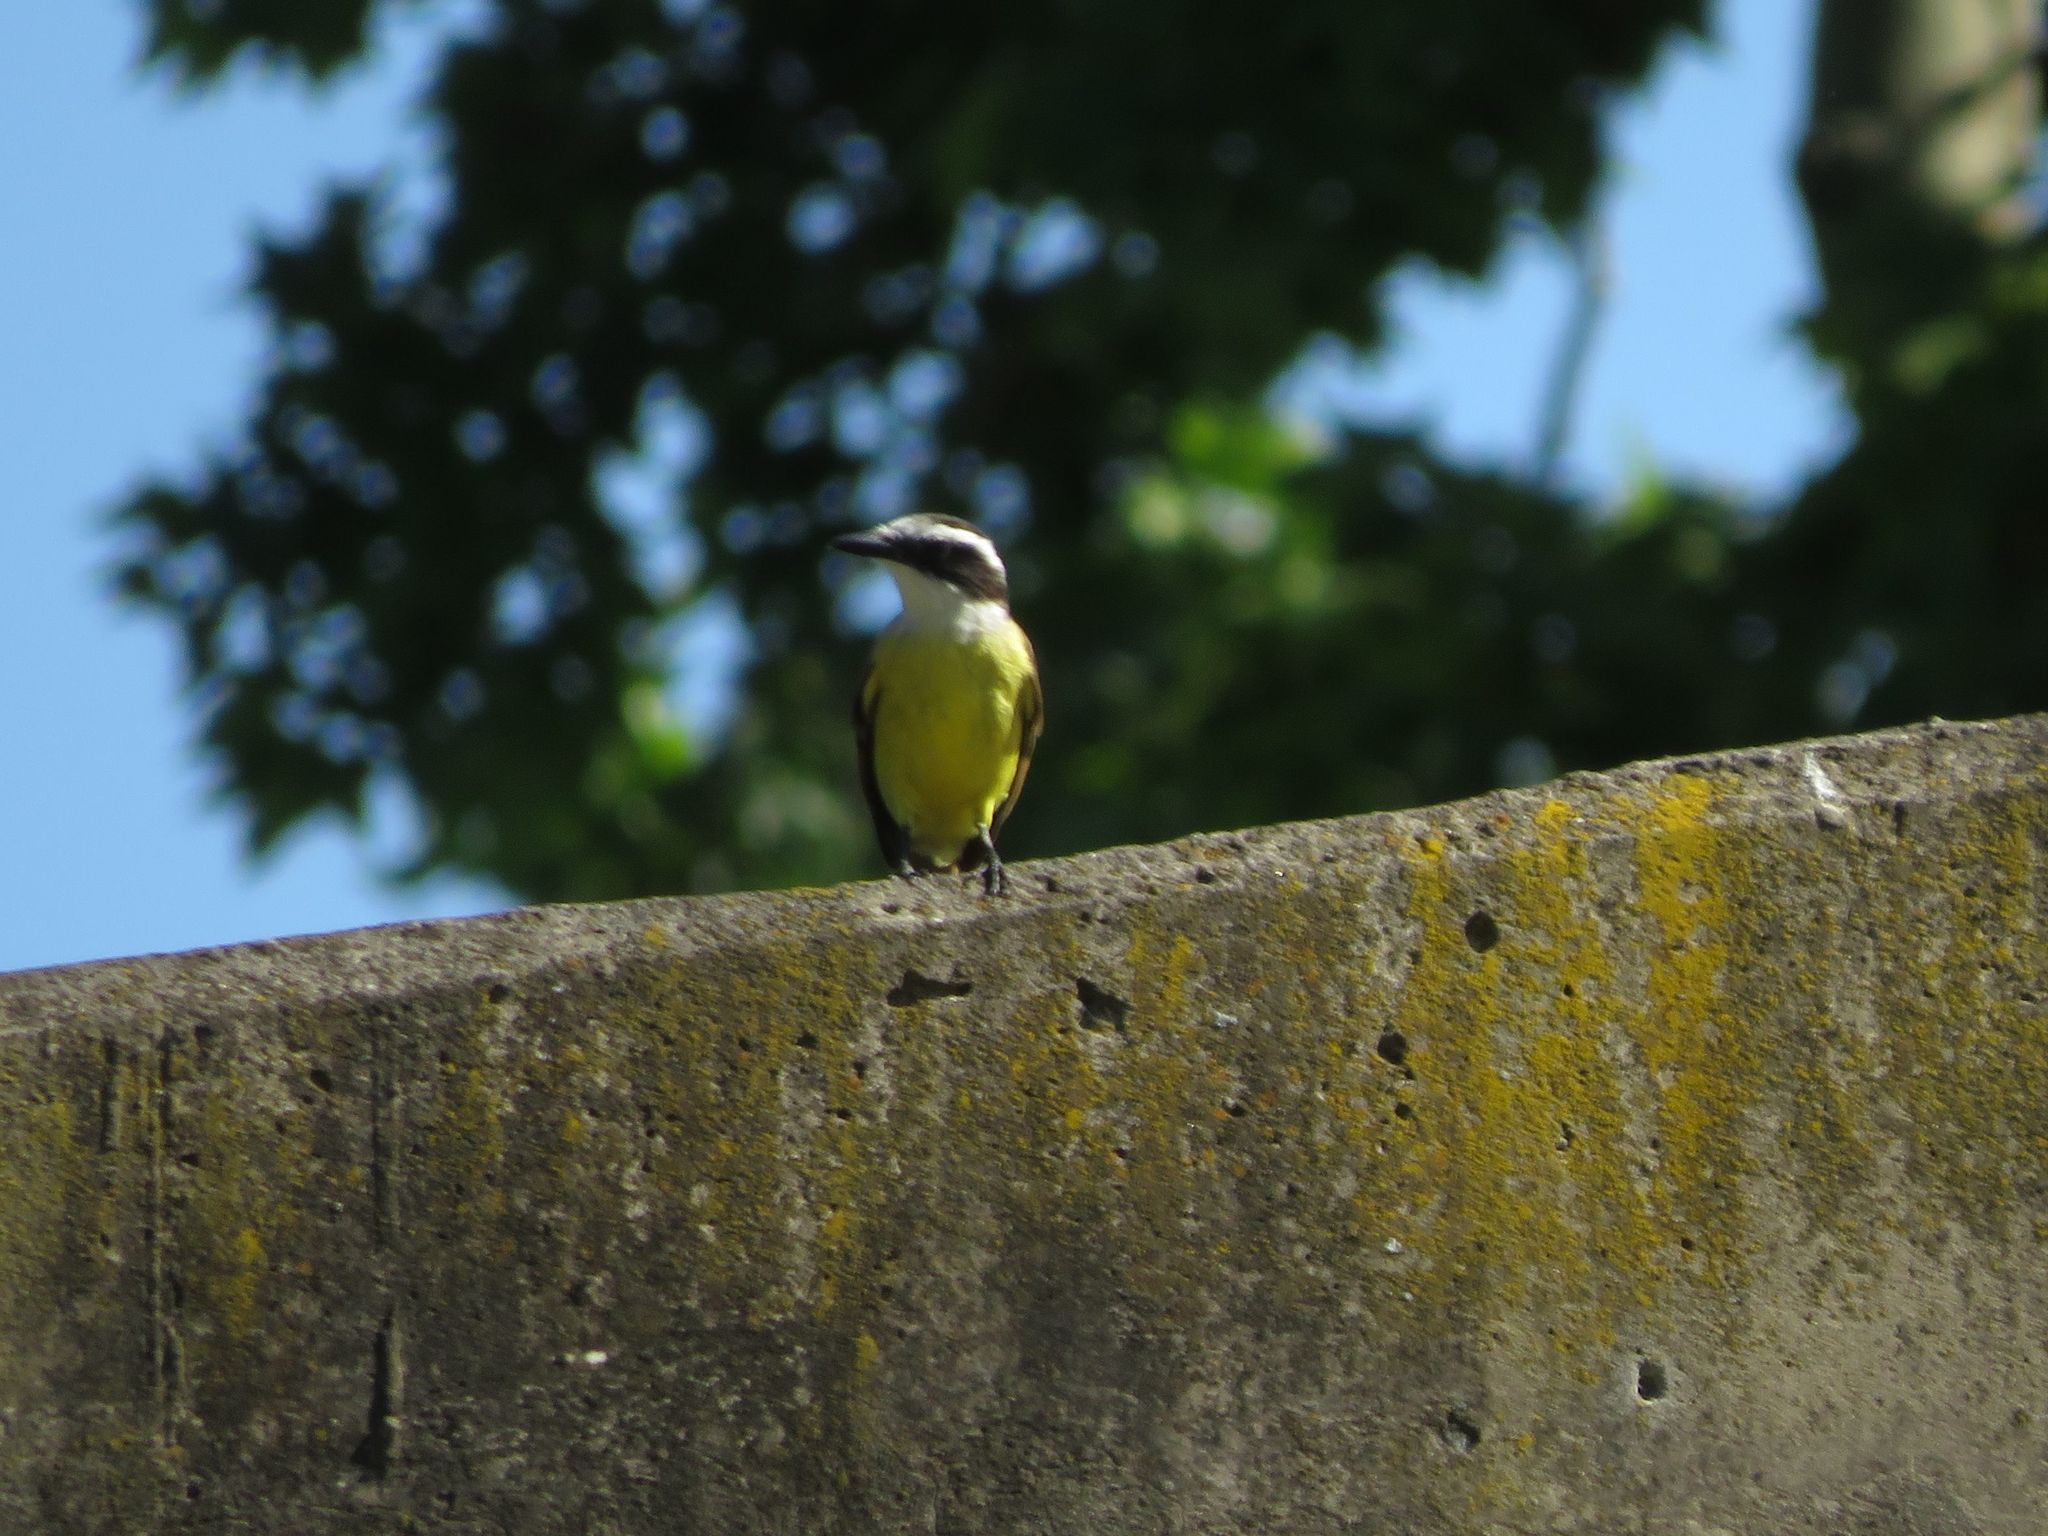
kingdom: Animalia
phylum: Chordata
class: Aves
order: Passeriformes
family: Tyrannidae
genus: Pitangus
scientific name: Pitangus sulphuratus
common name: Great kiskadee
